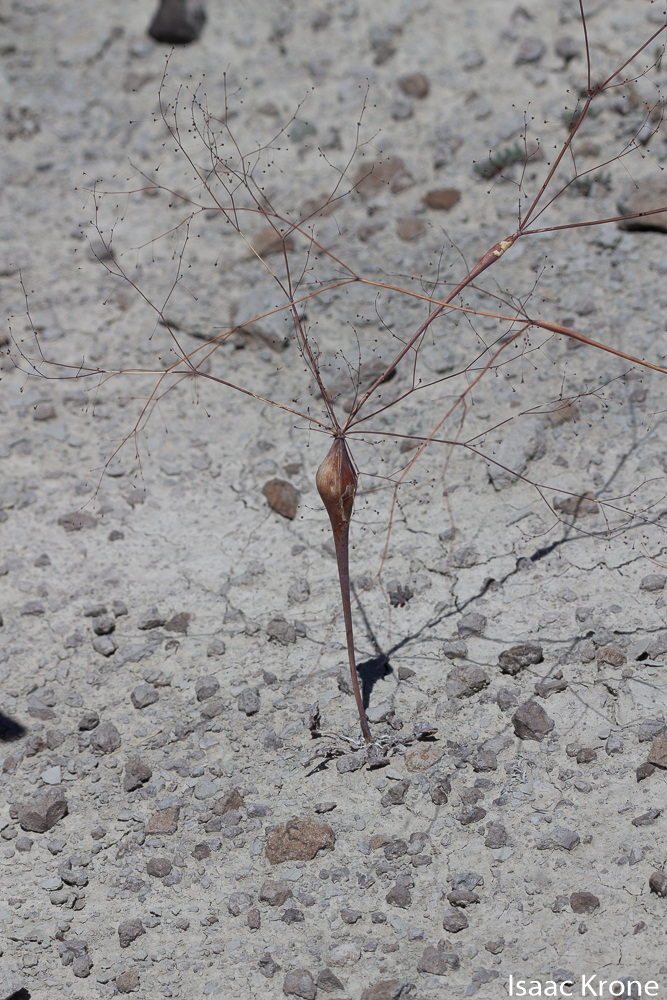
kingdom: Plantae
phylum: Tracheophyta
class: Magnoliopsida
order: Caryophyllales
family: Polygonaceae
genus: Eriogonum
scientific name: Eriogonum inflatum
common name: Desert trumpet
